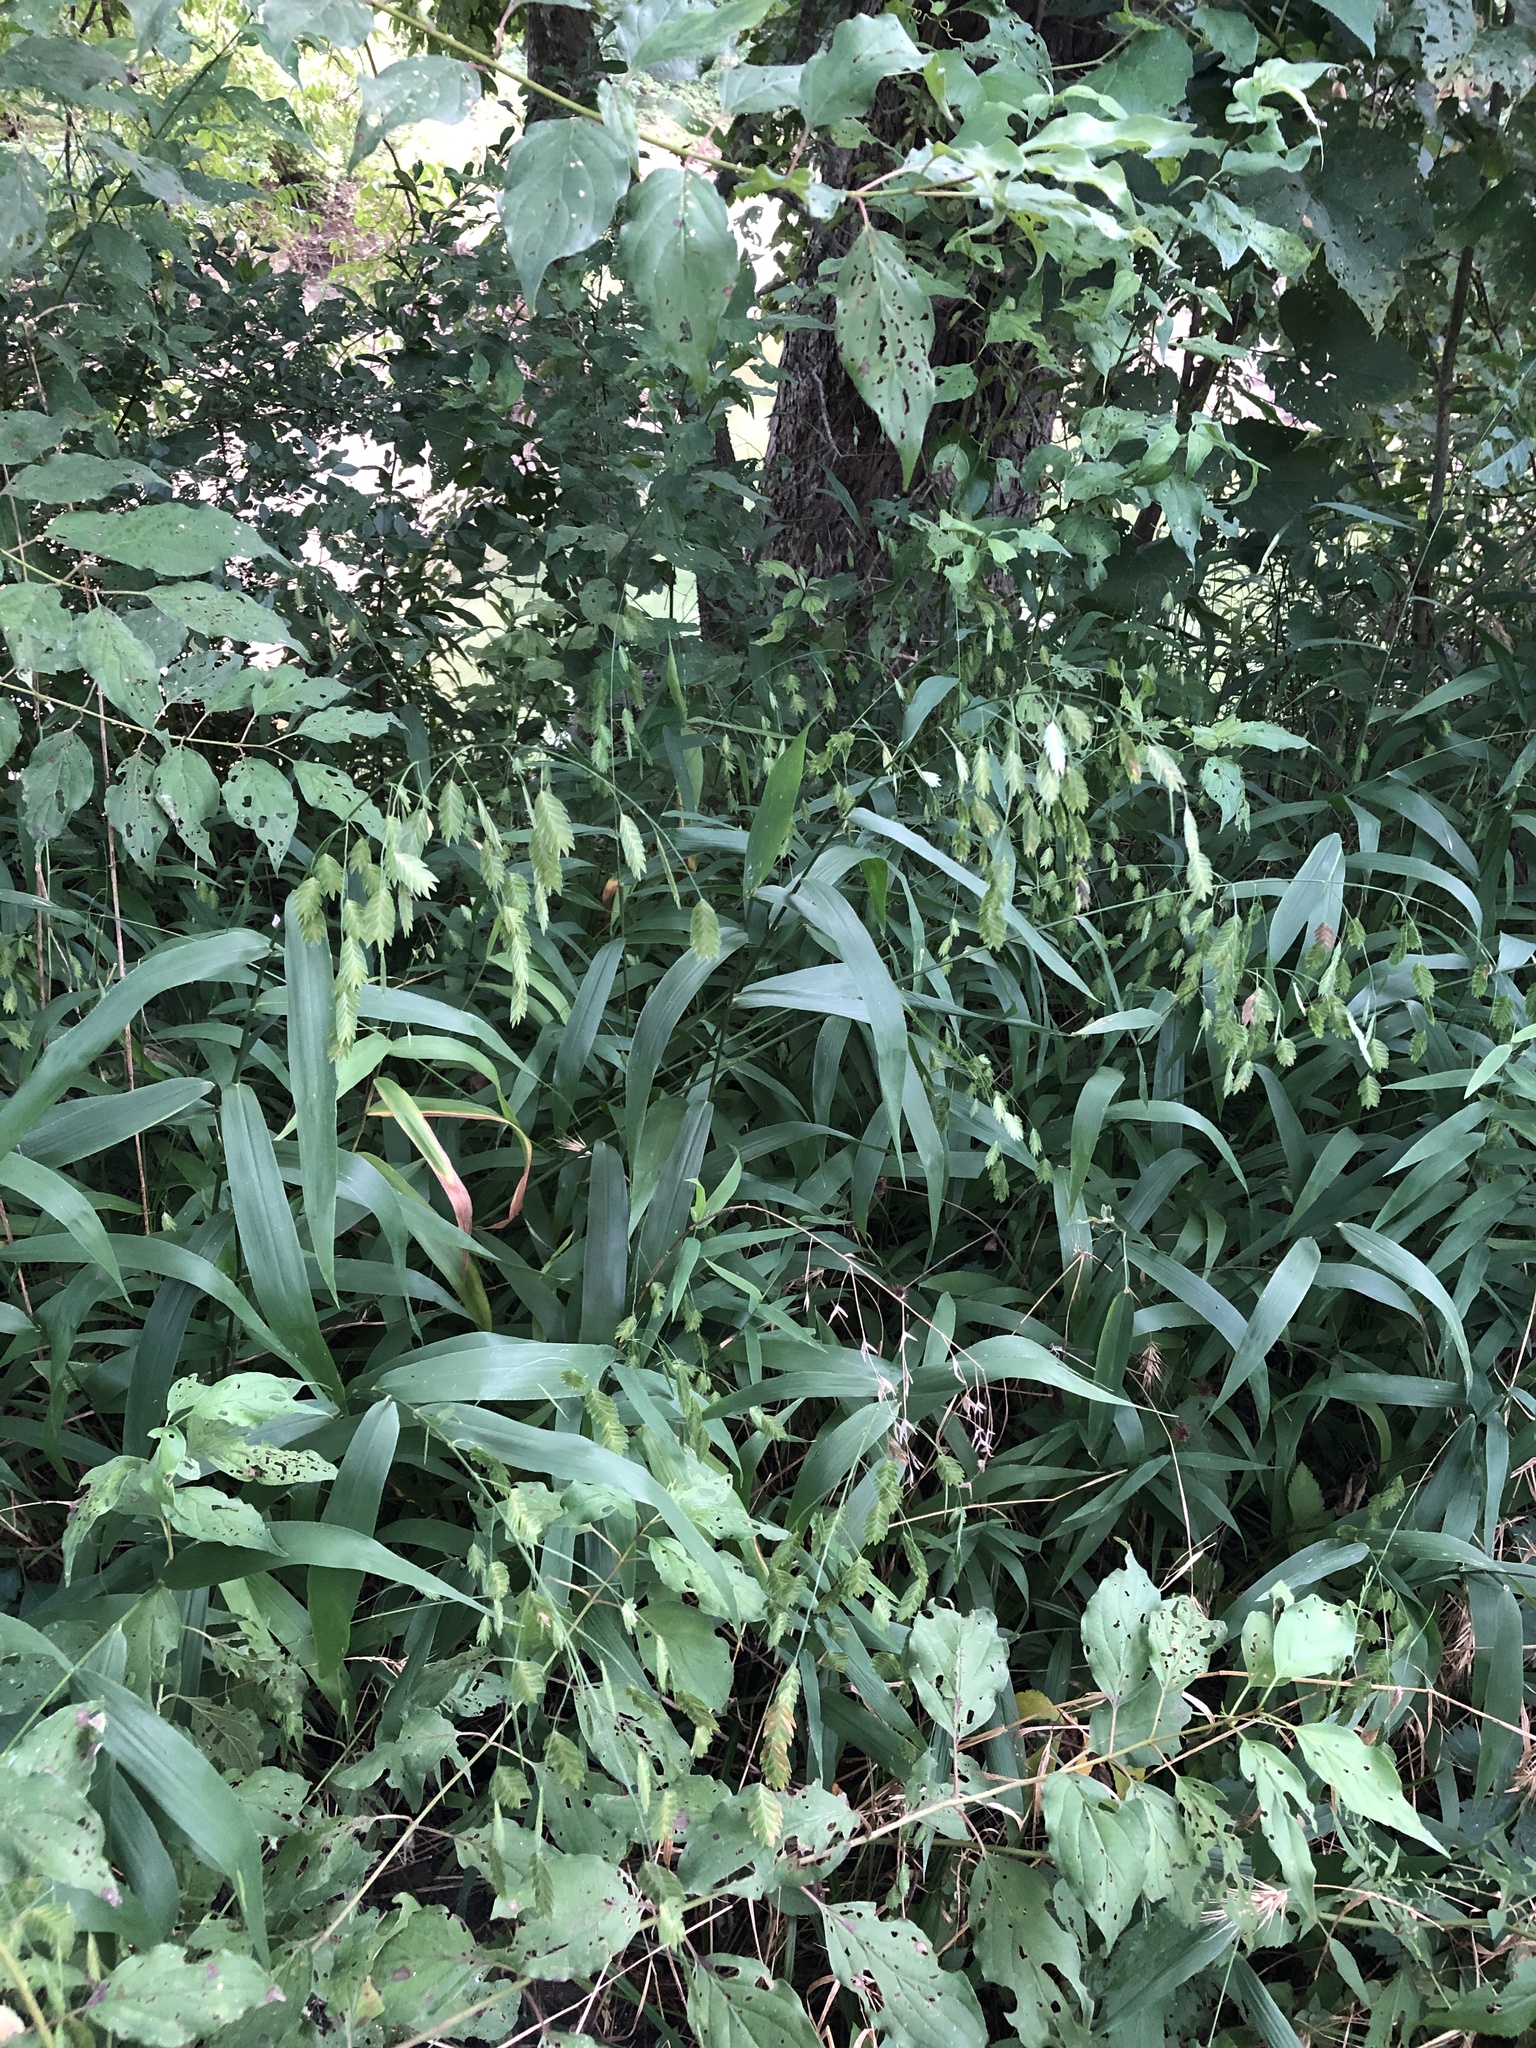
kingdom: Plantae
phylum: Tracheophyta
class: Liliopsida
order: Poales
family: Poaceae
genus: Chasmanthium
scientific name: Chasmanthium latifolium
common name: Broad-leaved chasmanthium
